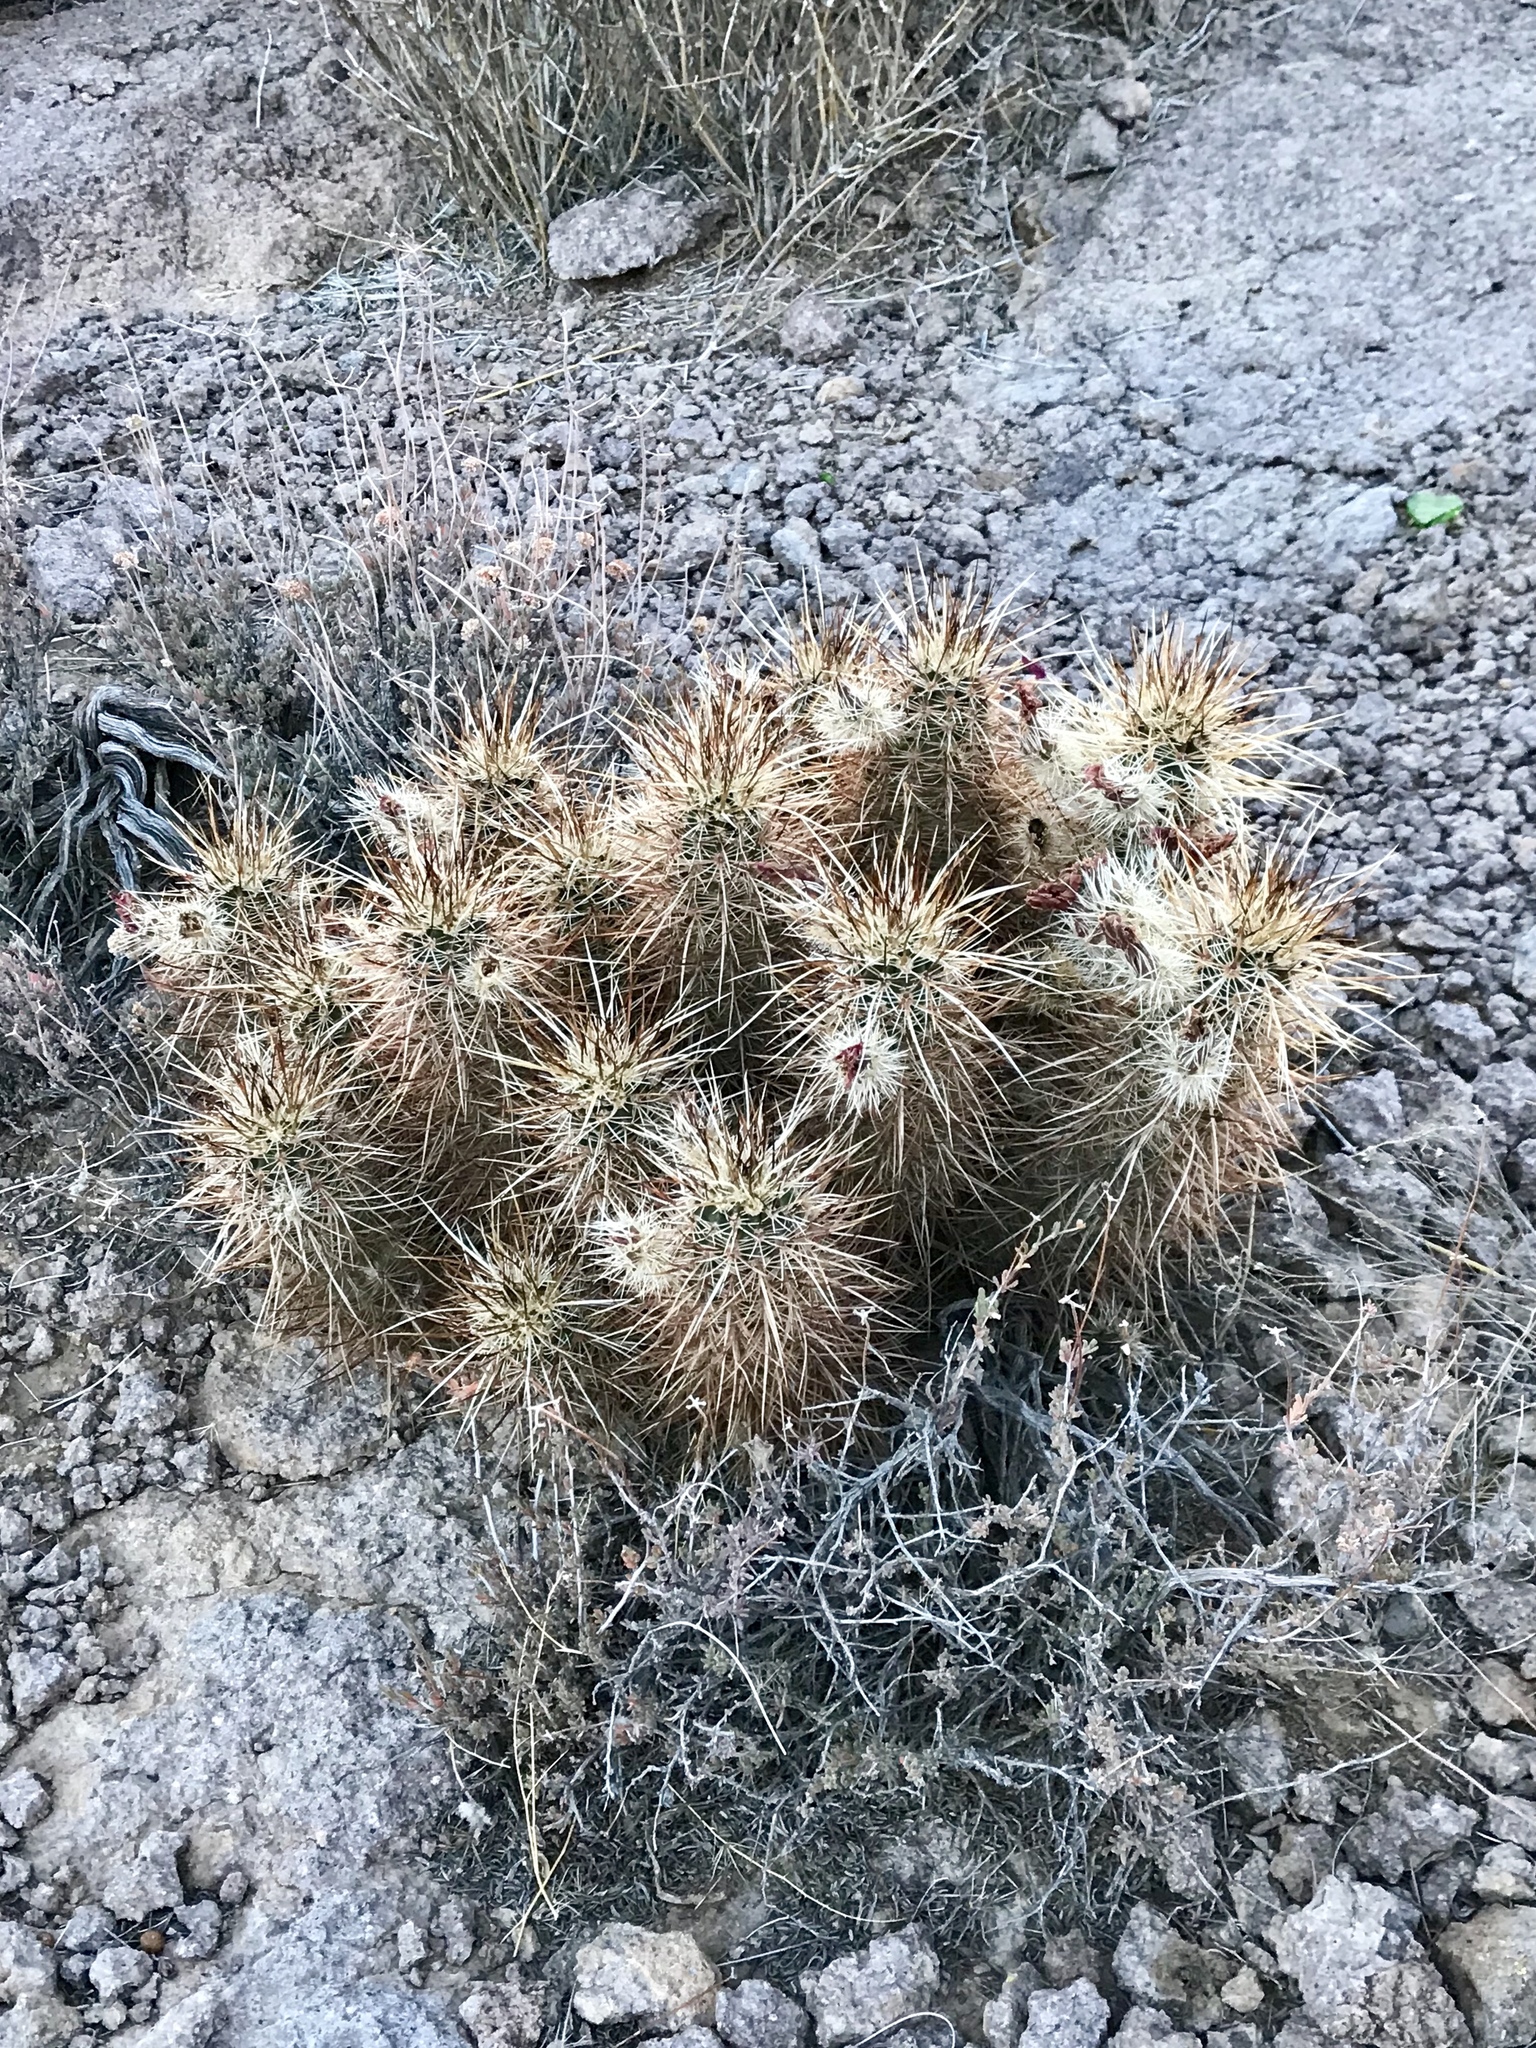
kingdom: Plantae
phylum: Tracheophyta
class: Magnoliopsida
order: Caryophyllales
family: Cactaceae
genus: Echinocereus
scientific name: Echinocereus engelmannii
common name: Engelmann's hedgehog cactus
